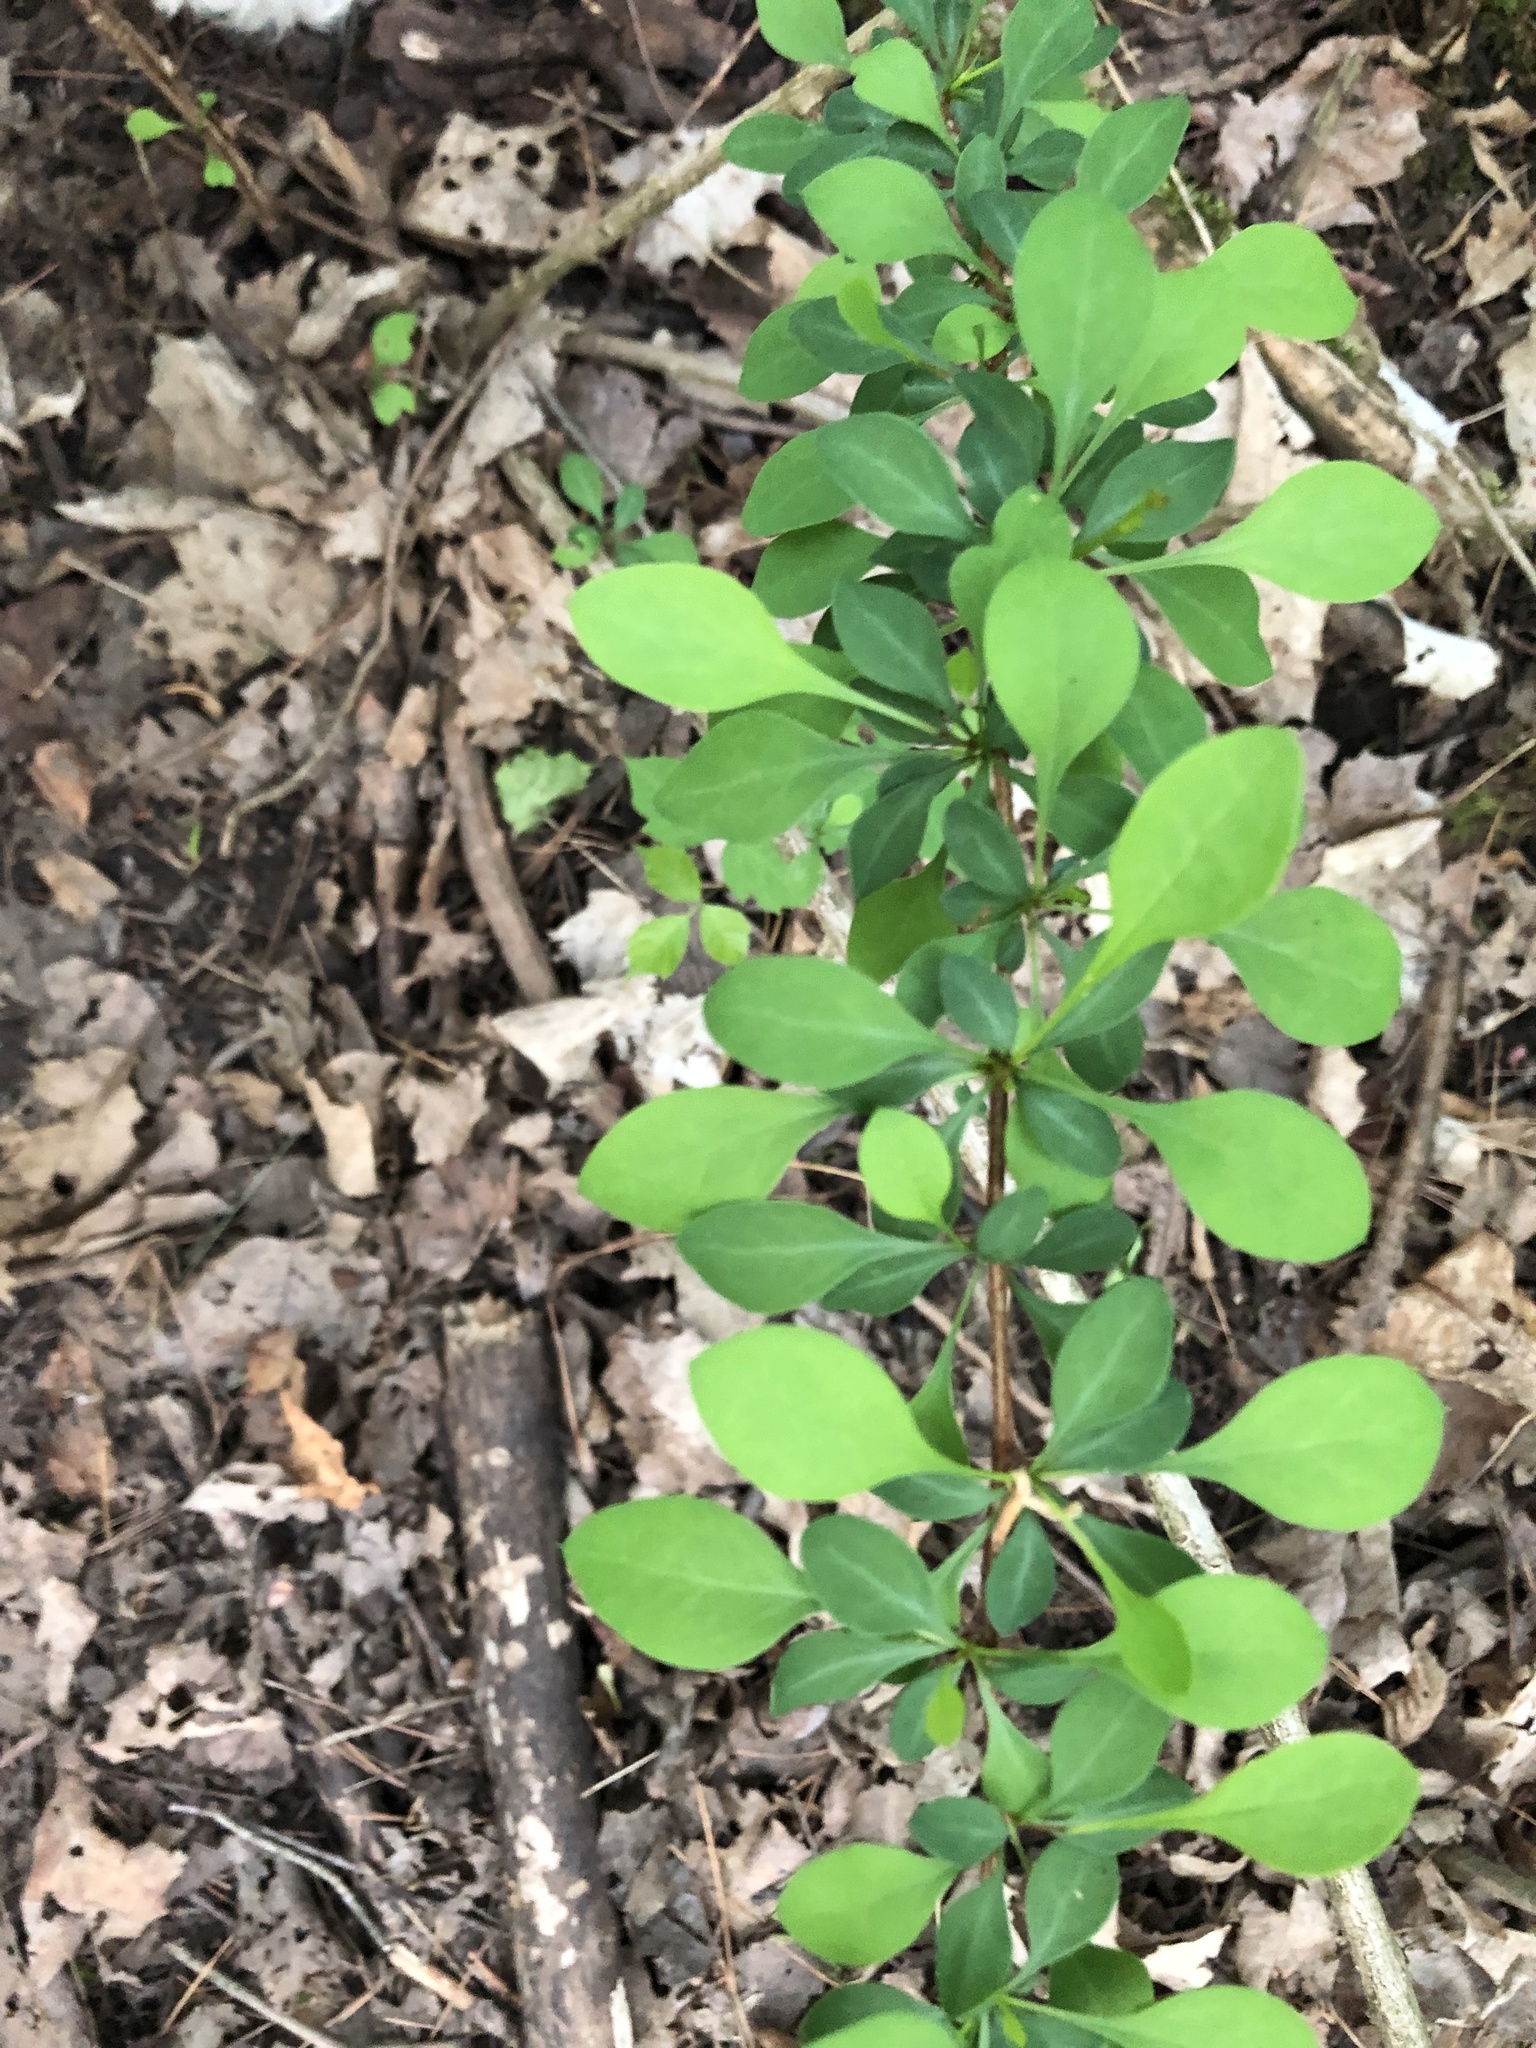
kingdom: Plantae
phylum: Tracheophyta
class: Magnoliopsida
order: Ranunculales
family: Berberidaceae
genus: Berberis
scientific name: Berberis thunbergii
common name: Japanese barberry
